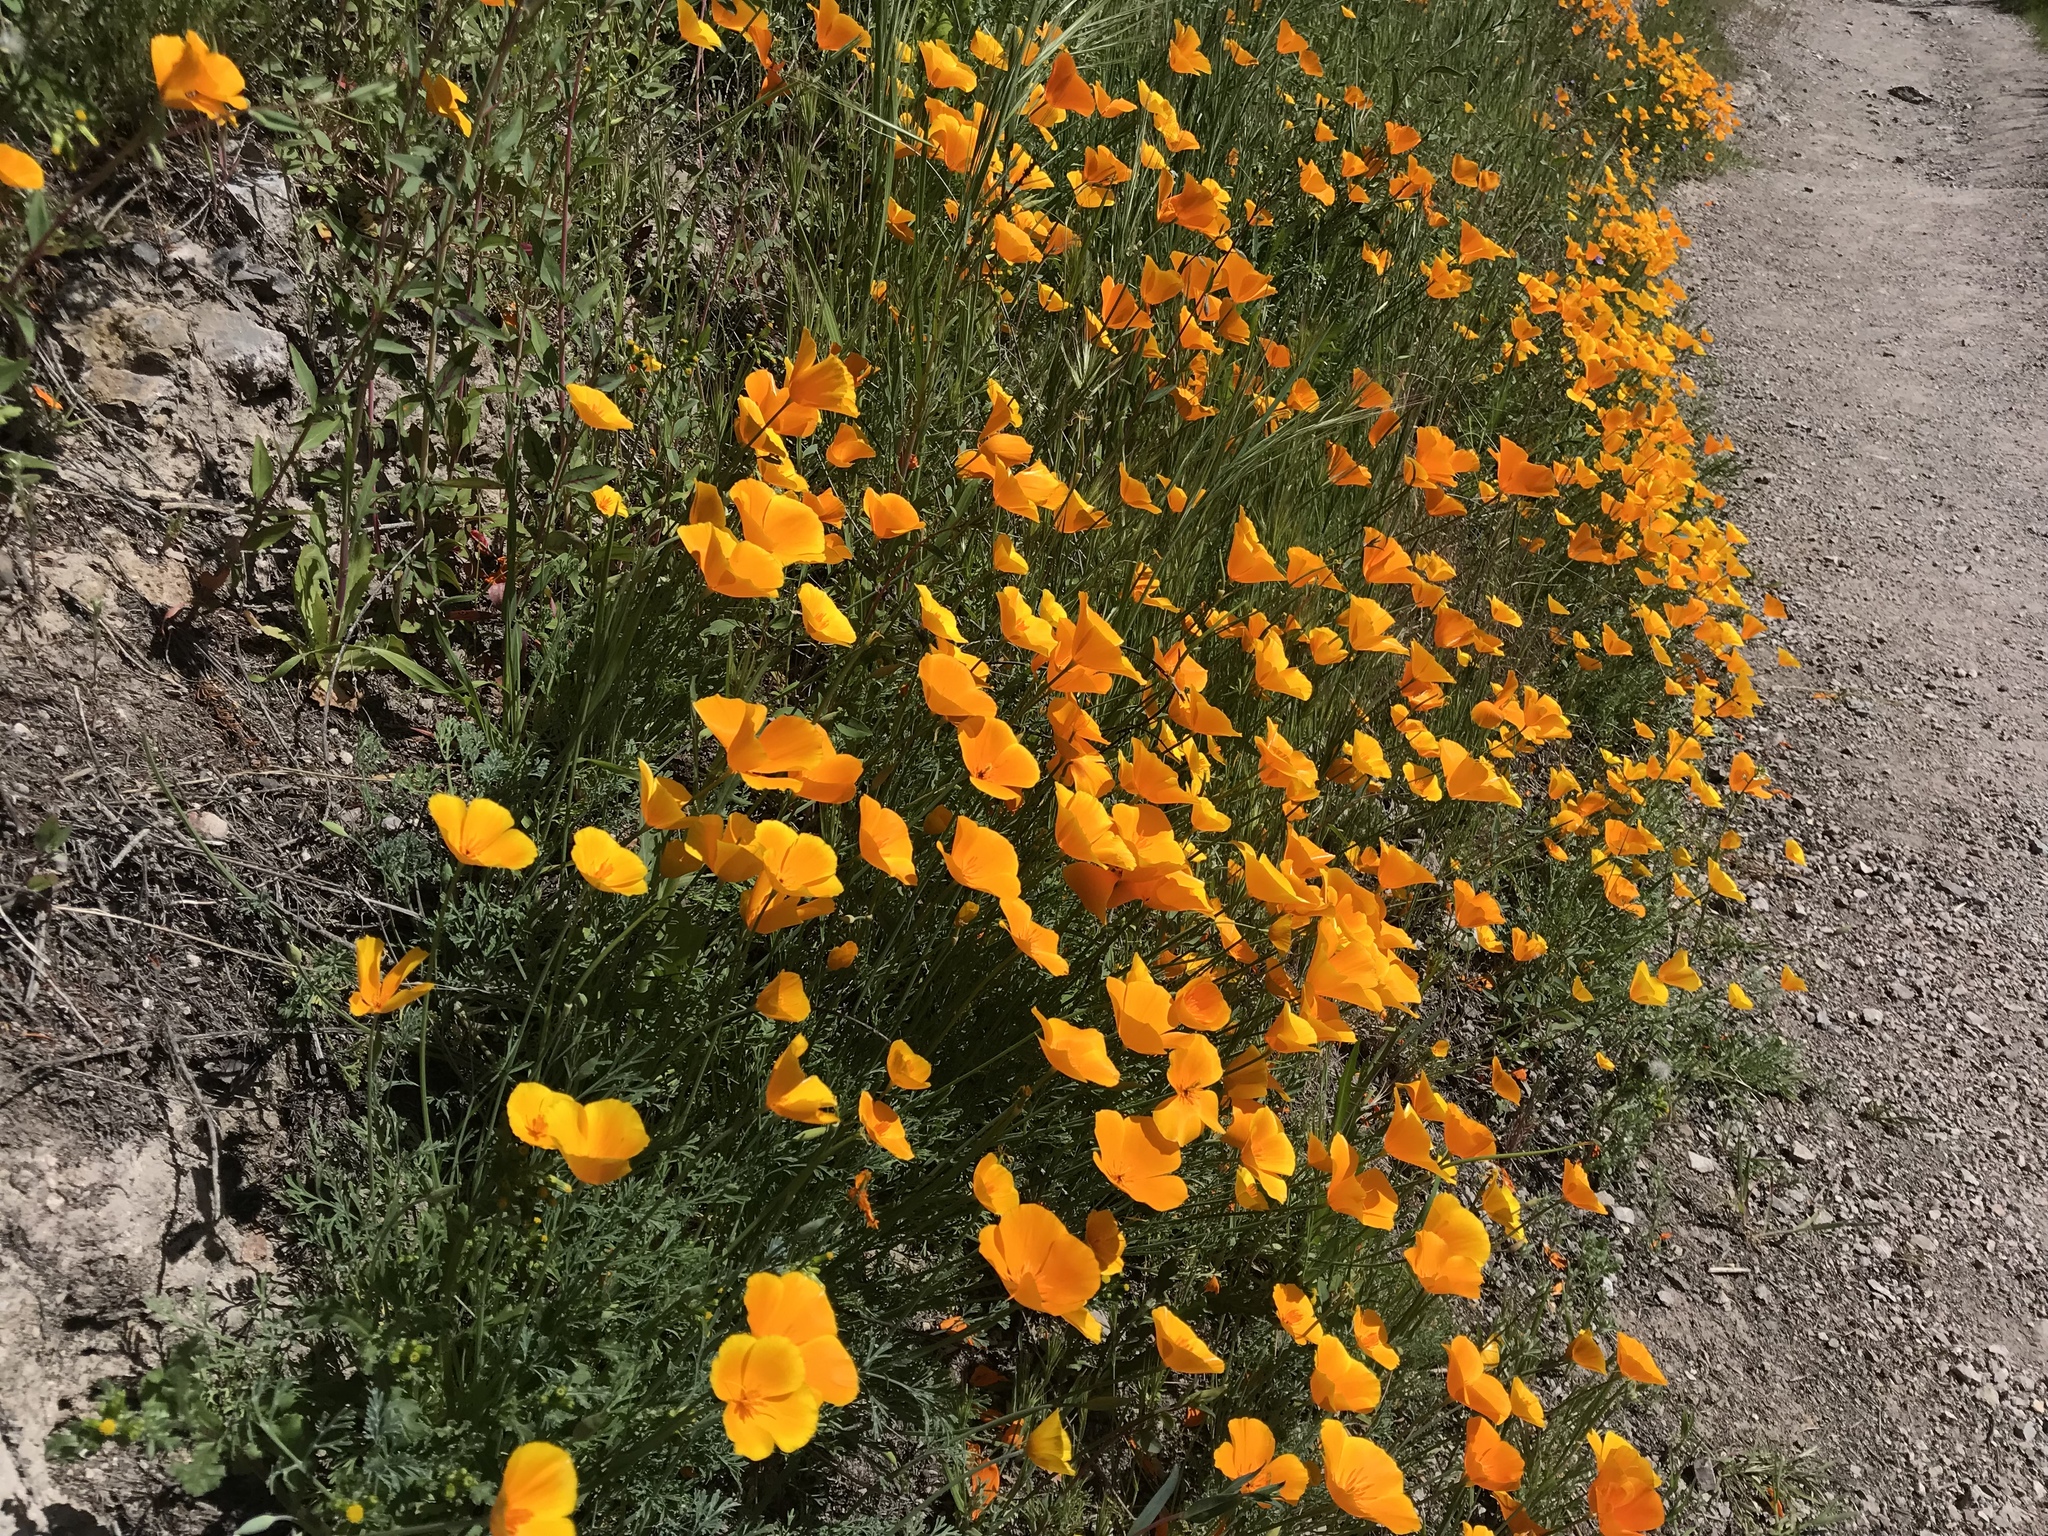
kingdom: Plantae
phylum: Tracheophyta
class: Magnoliopsida
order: Ranunculales
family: Papaveraceae
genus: Eschscholzia
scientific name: Eschscholzia californica
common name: California poppy
